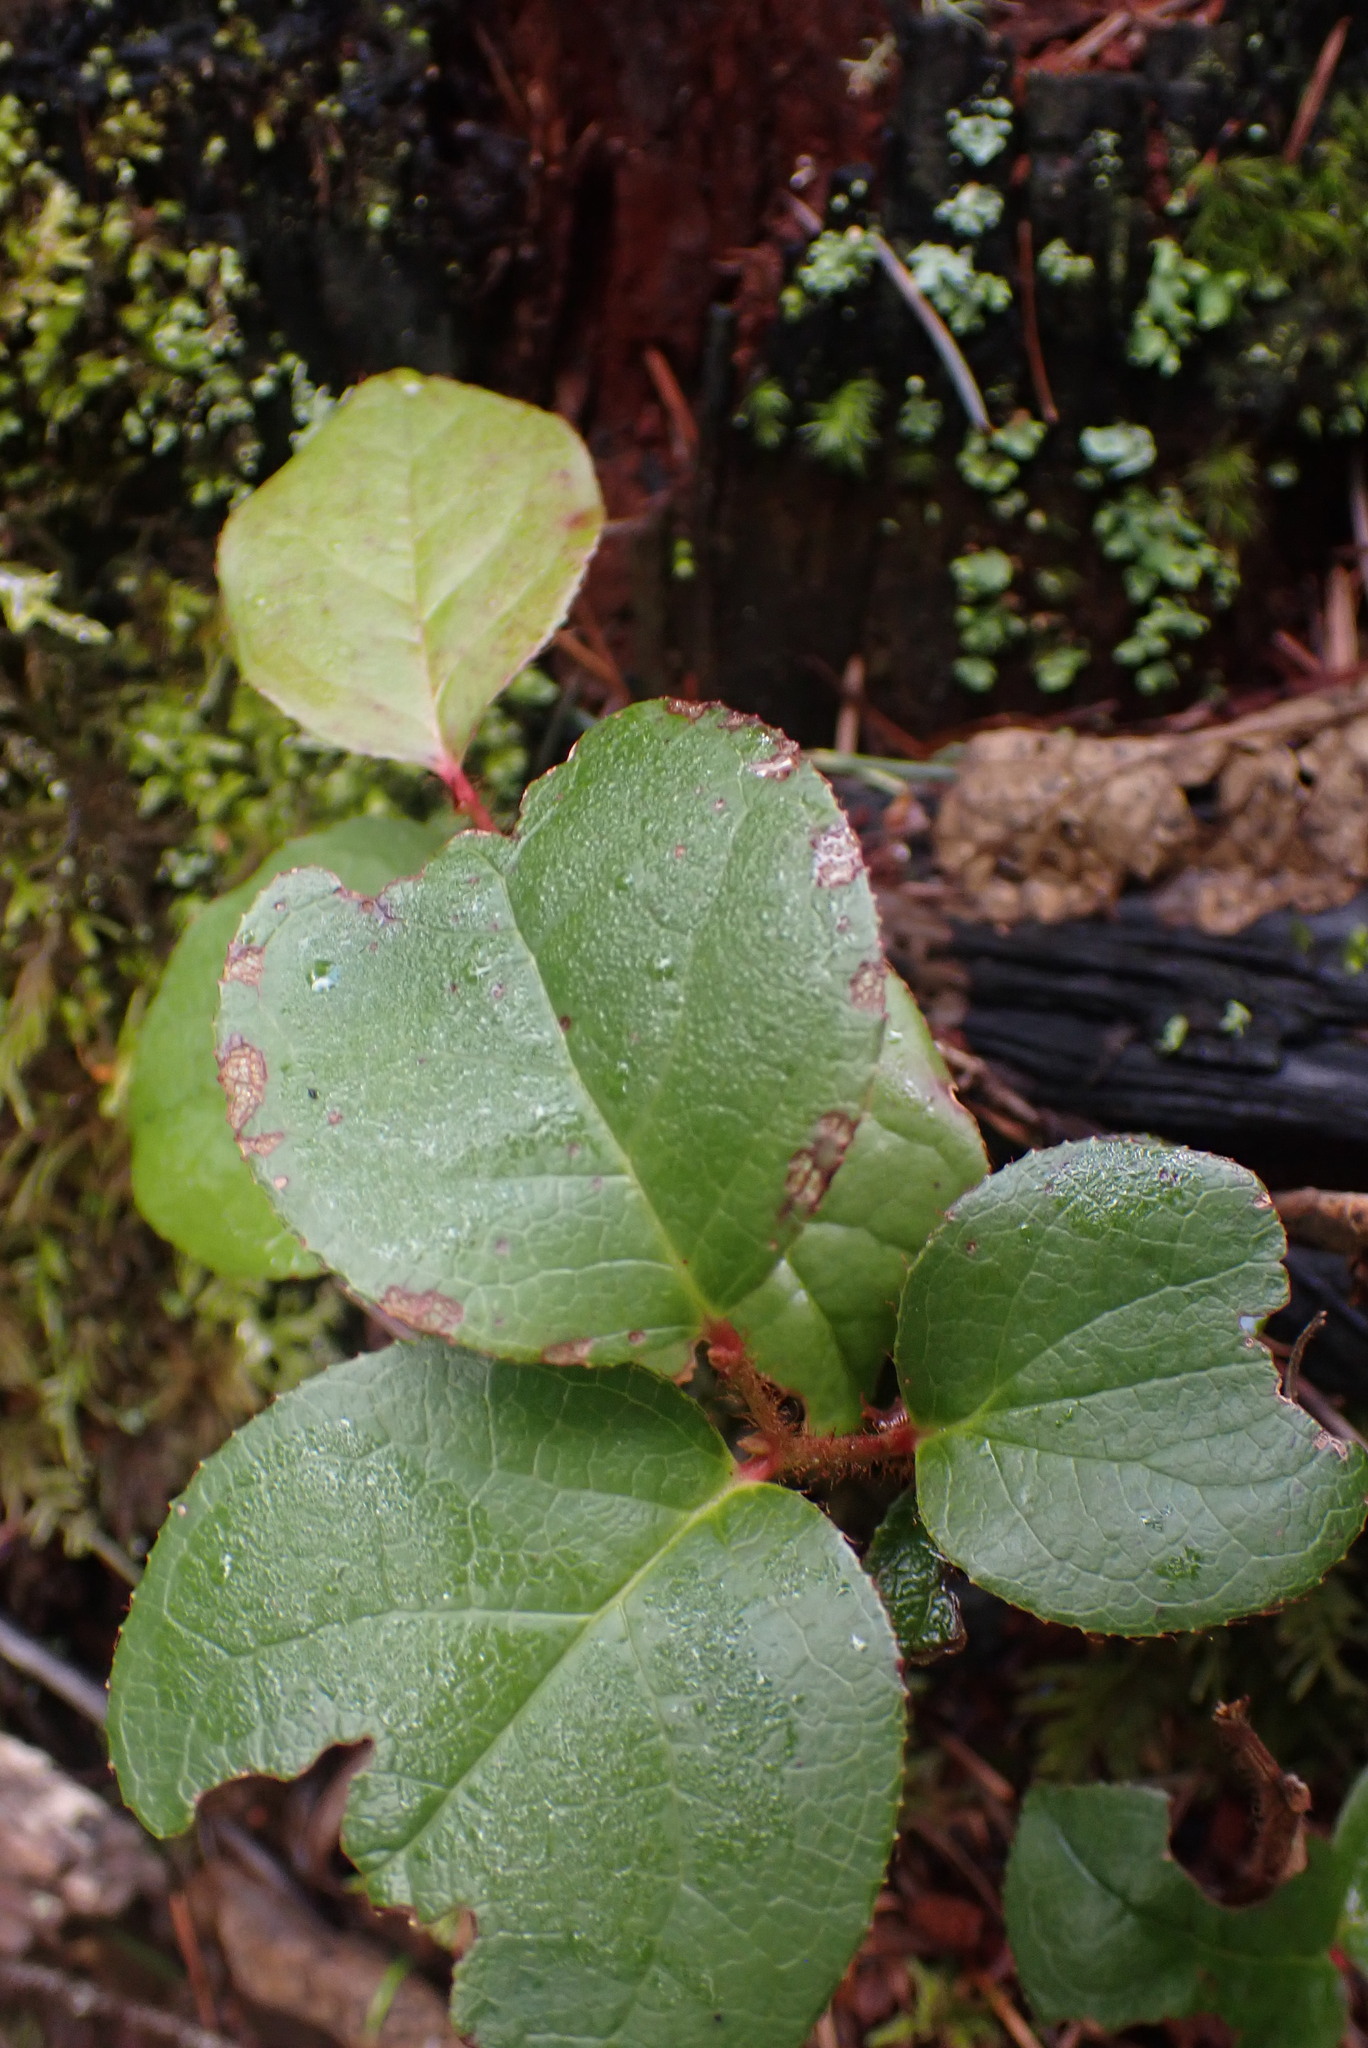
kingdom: Plantae
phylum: Tracheophyta
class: Magnoliopsida
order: Ericales
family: Ericaceae
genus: Gaultheria
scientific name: Gaultheria shallon
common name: Shallon
